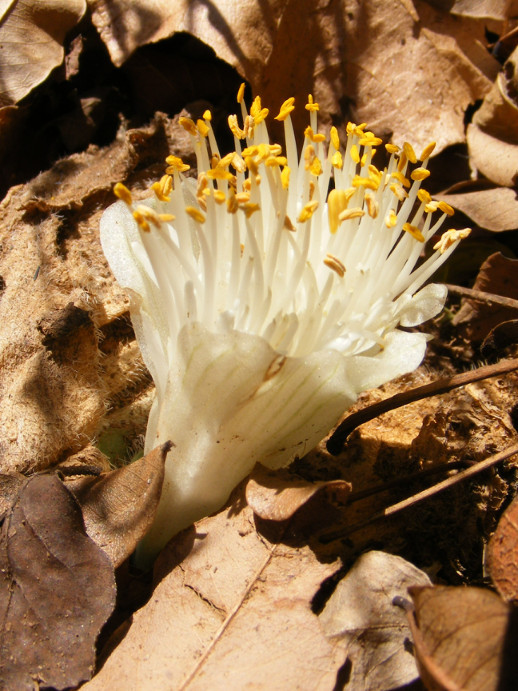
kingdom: Plantae
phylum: Tracheophyta
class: Liliopsida
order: Asparagales
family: Amaryllidaceae
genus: Haemanthus
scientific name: Haemanthus deformis
